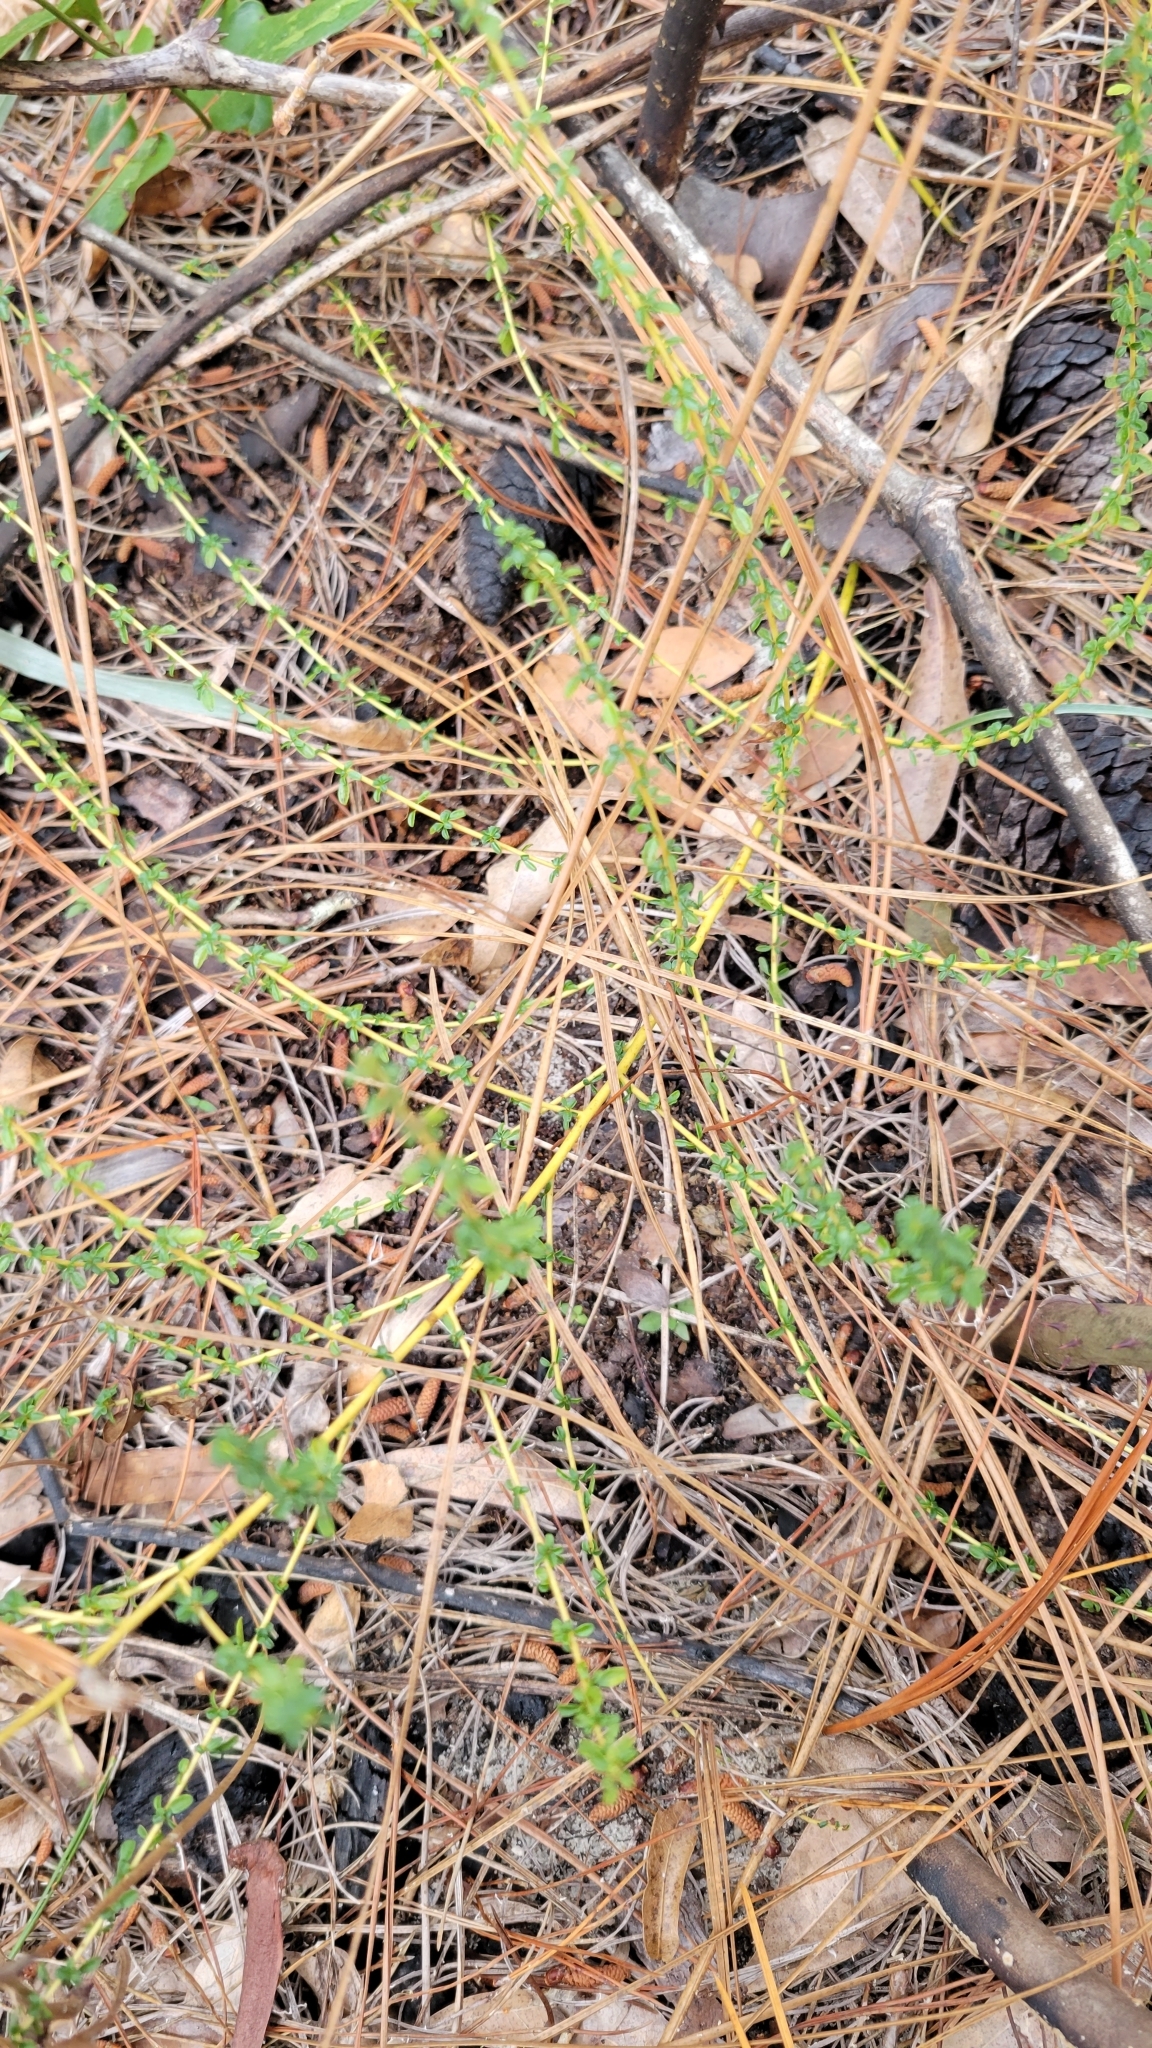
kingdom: Plantae
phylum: Tracheophyta
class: Magnoliopsida
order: Rosales
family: Rhamnaceae
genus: Ceanothus
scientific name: Ceanothus microphyllus
